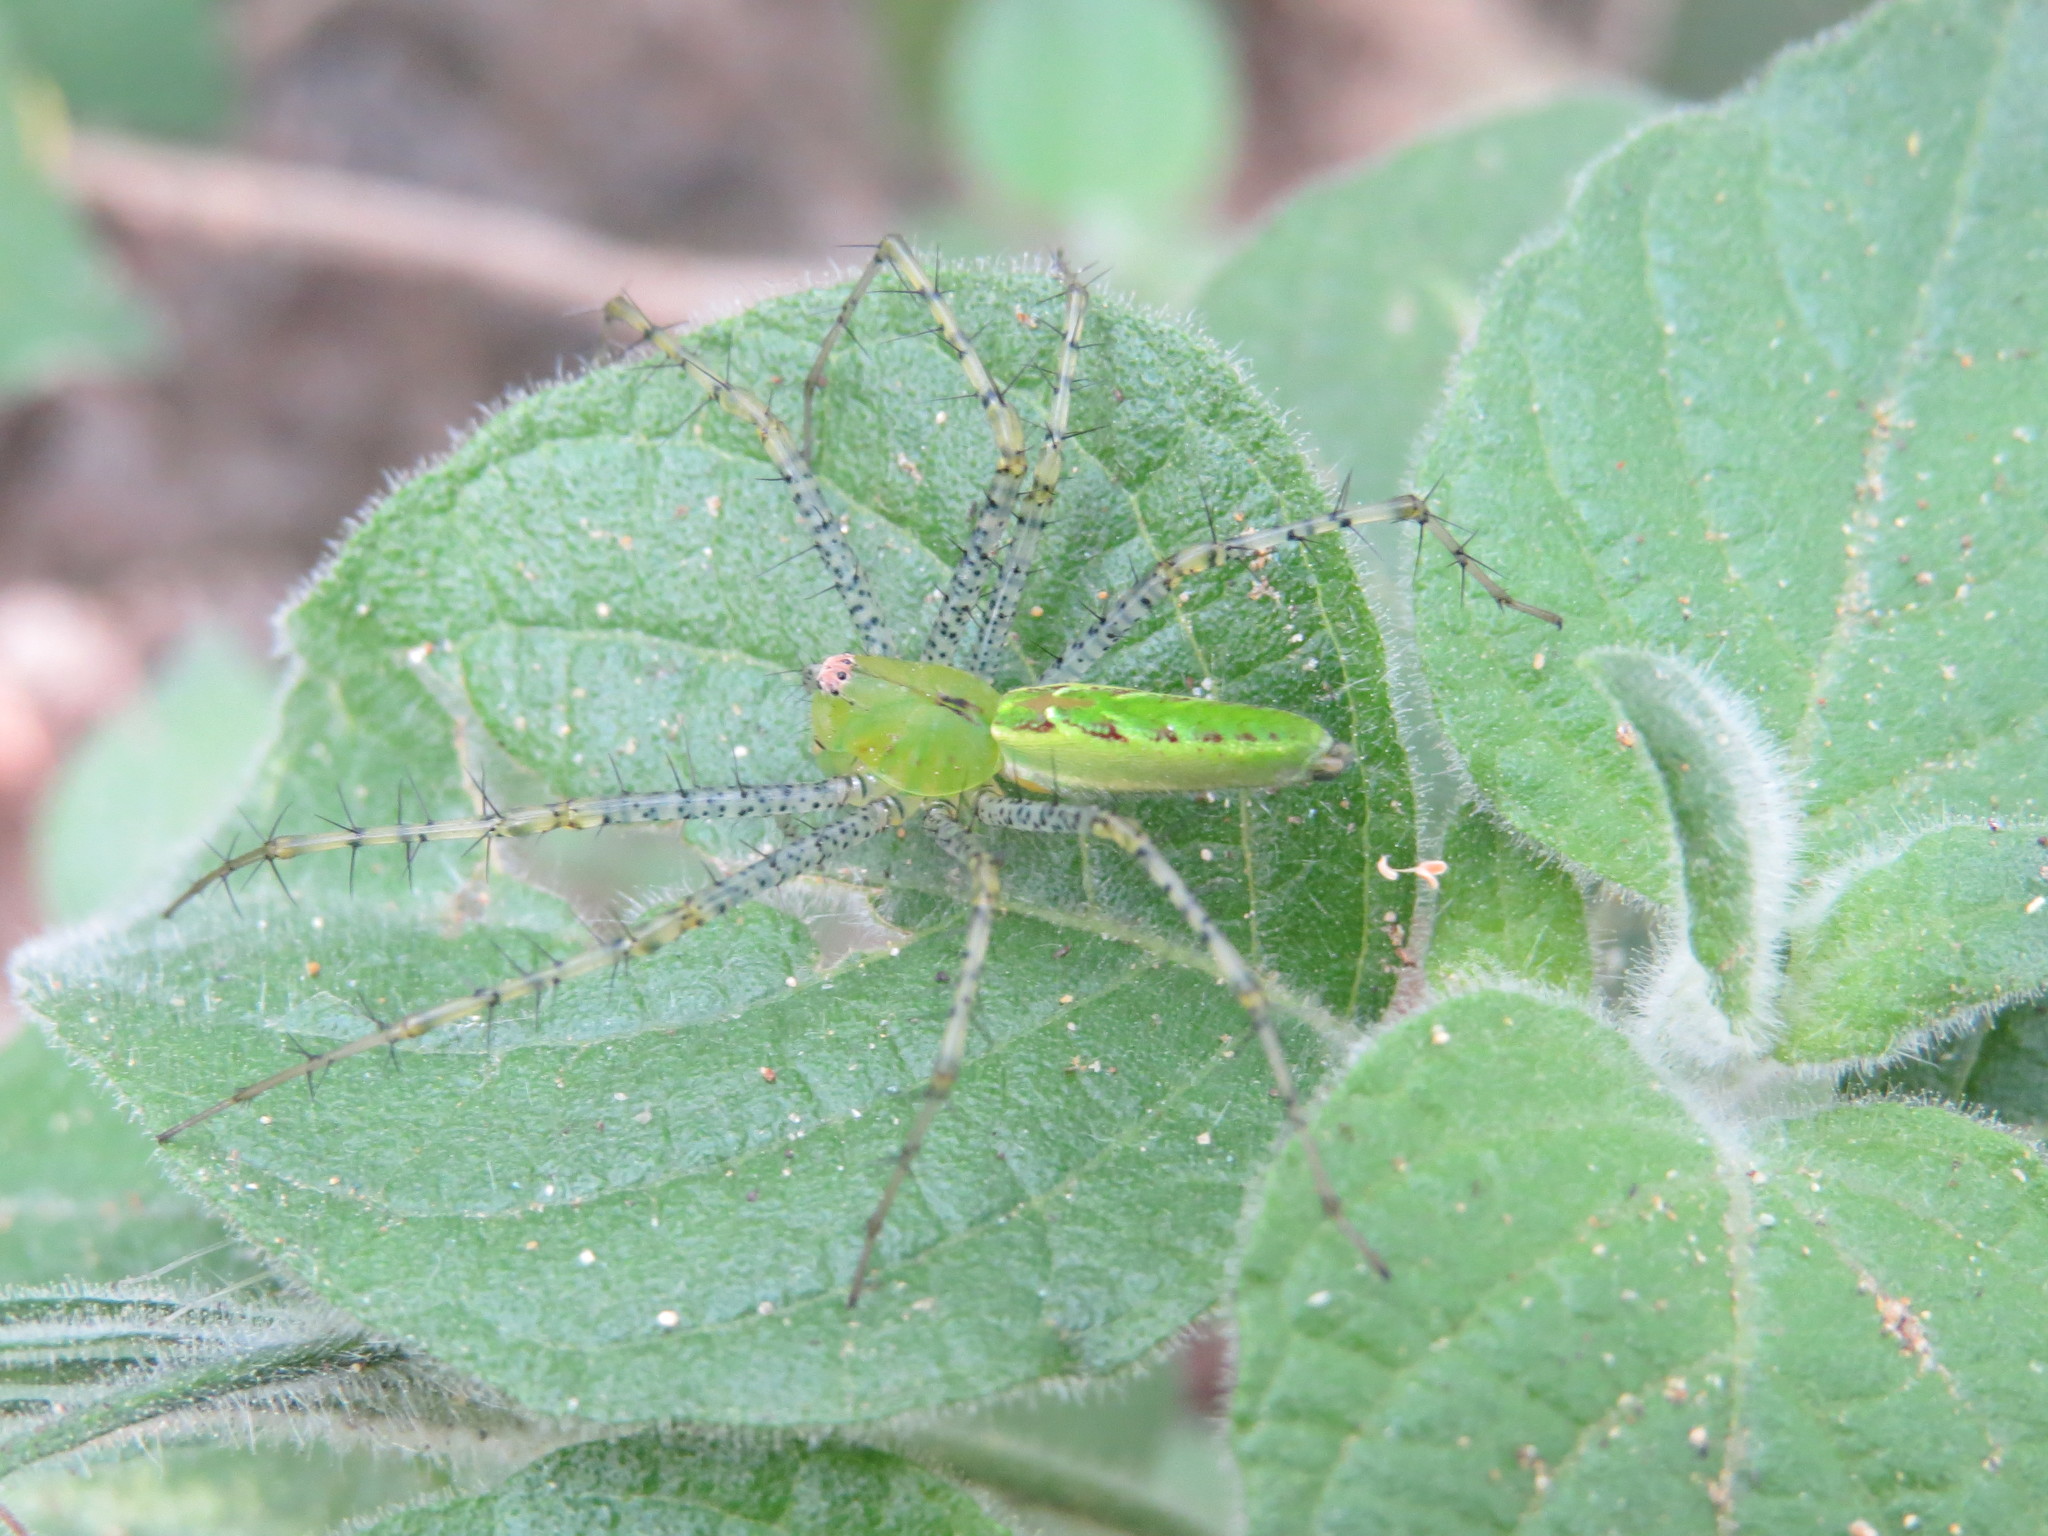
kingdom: Animalia
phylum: Arthropoda
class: Arachnida
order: Araneae
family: Oxyopidae
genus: Peucetia
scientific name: Peucetia viridans
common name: Lynx spiders
